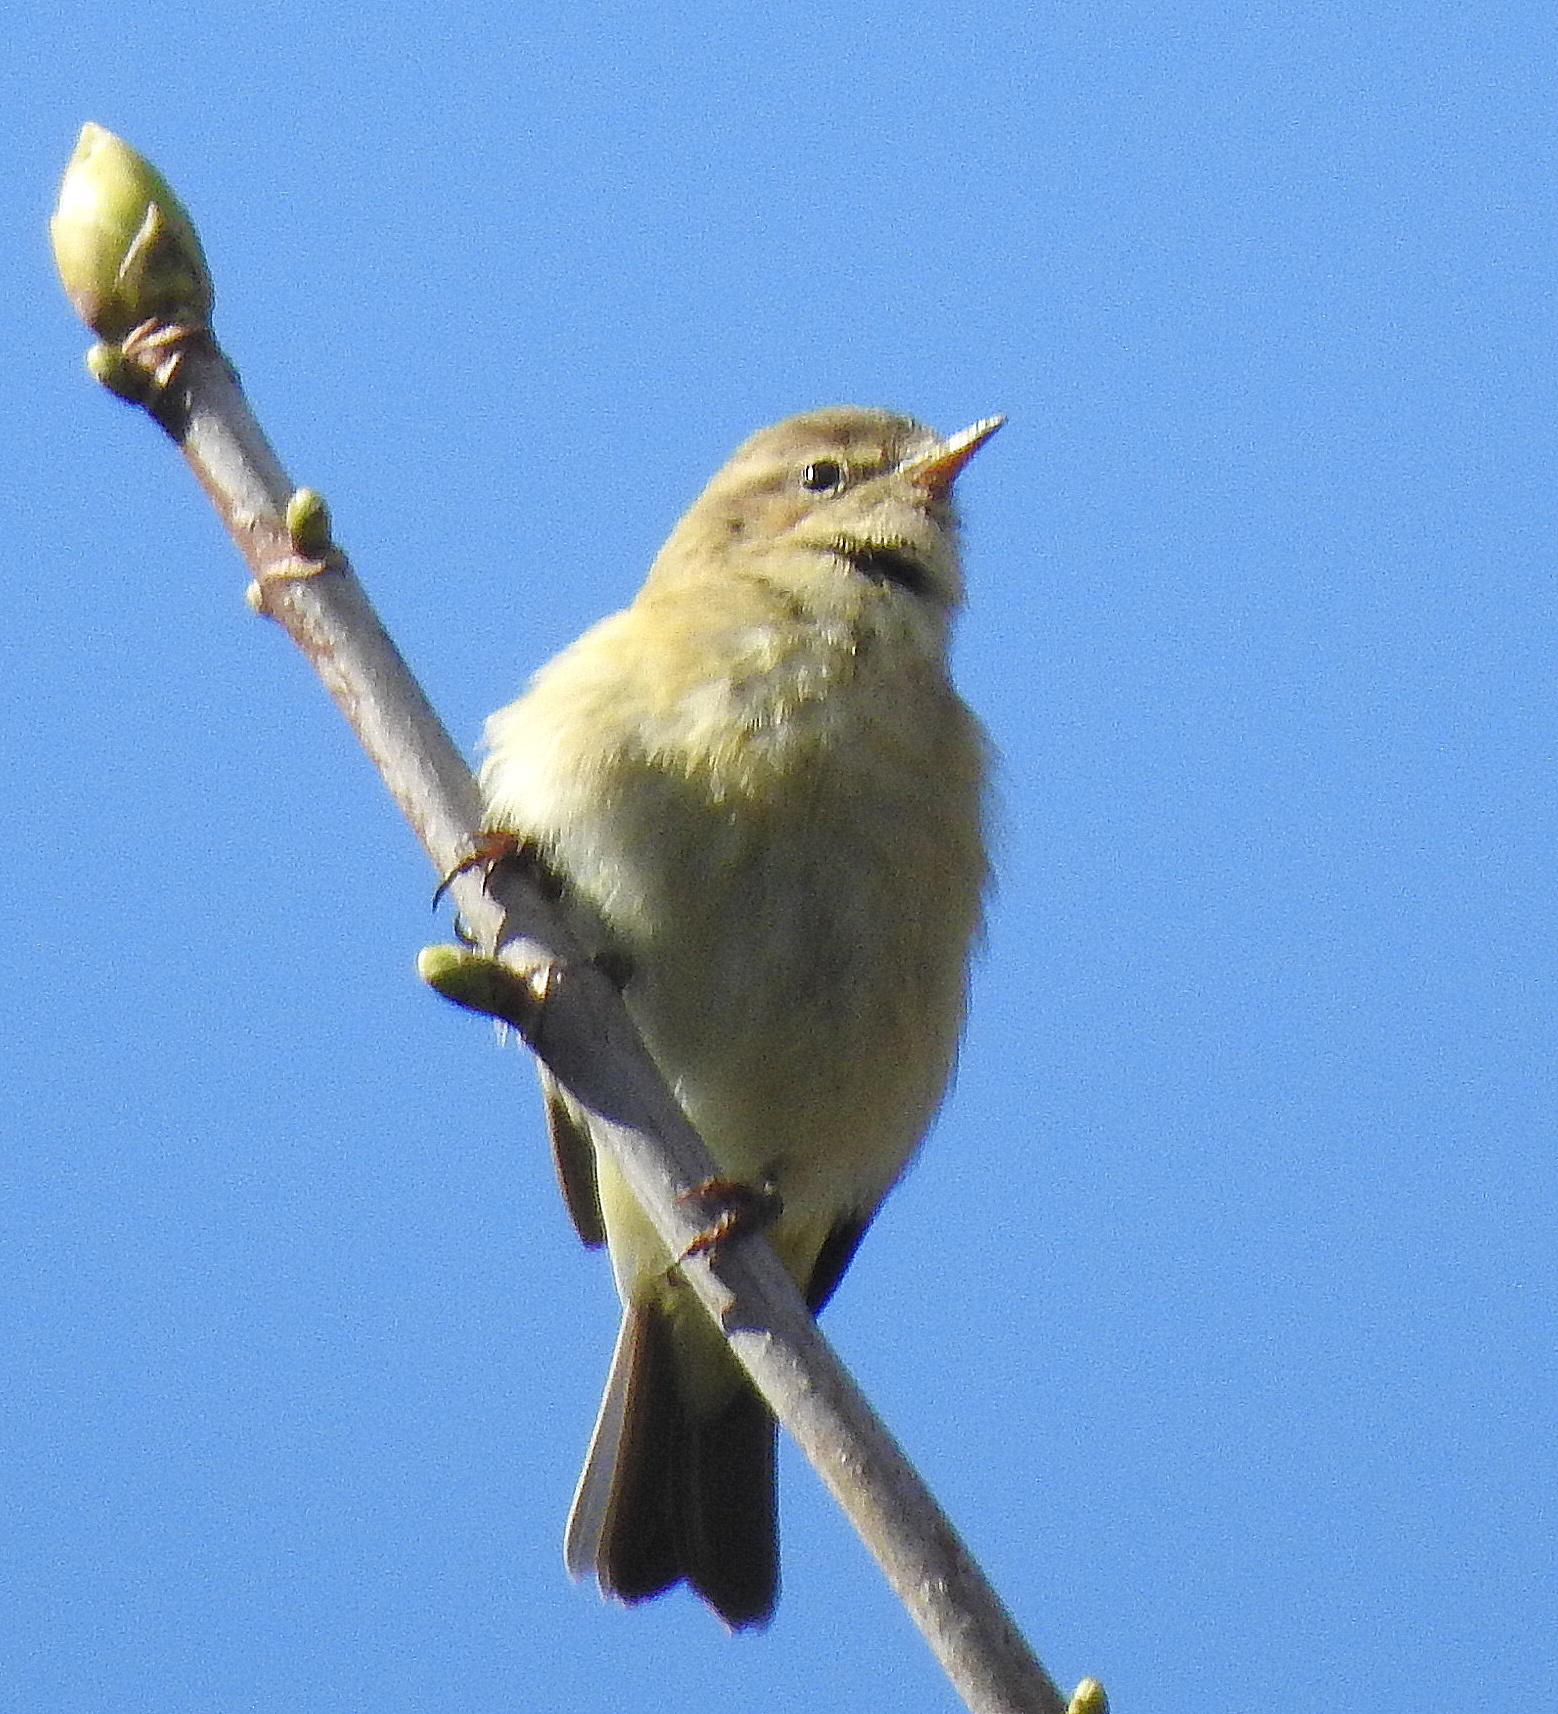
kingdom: Animalia
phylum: Chordata
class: Aves
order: Passeriformes
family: Phylloscopidae
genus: Phylloscopus
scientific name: Phylloscopus collybita
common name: Common chiffchaff
